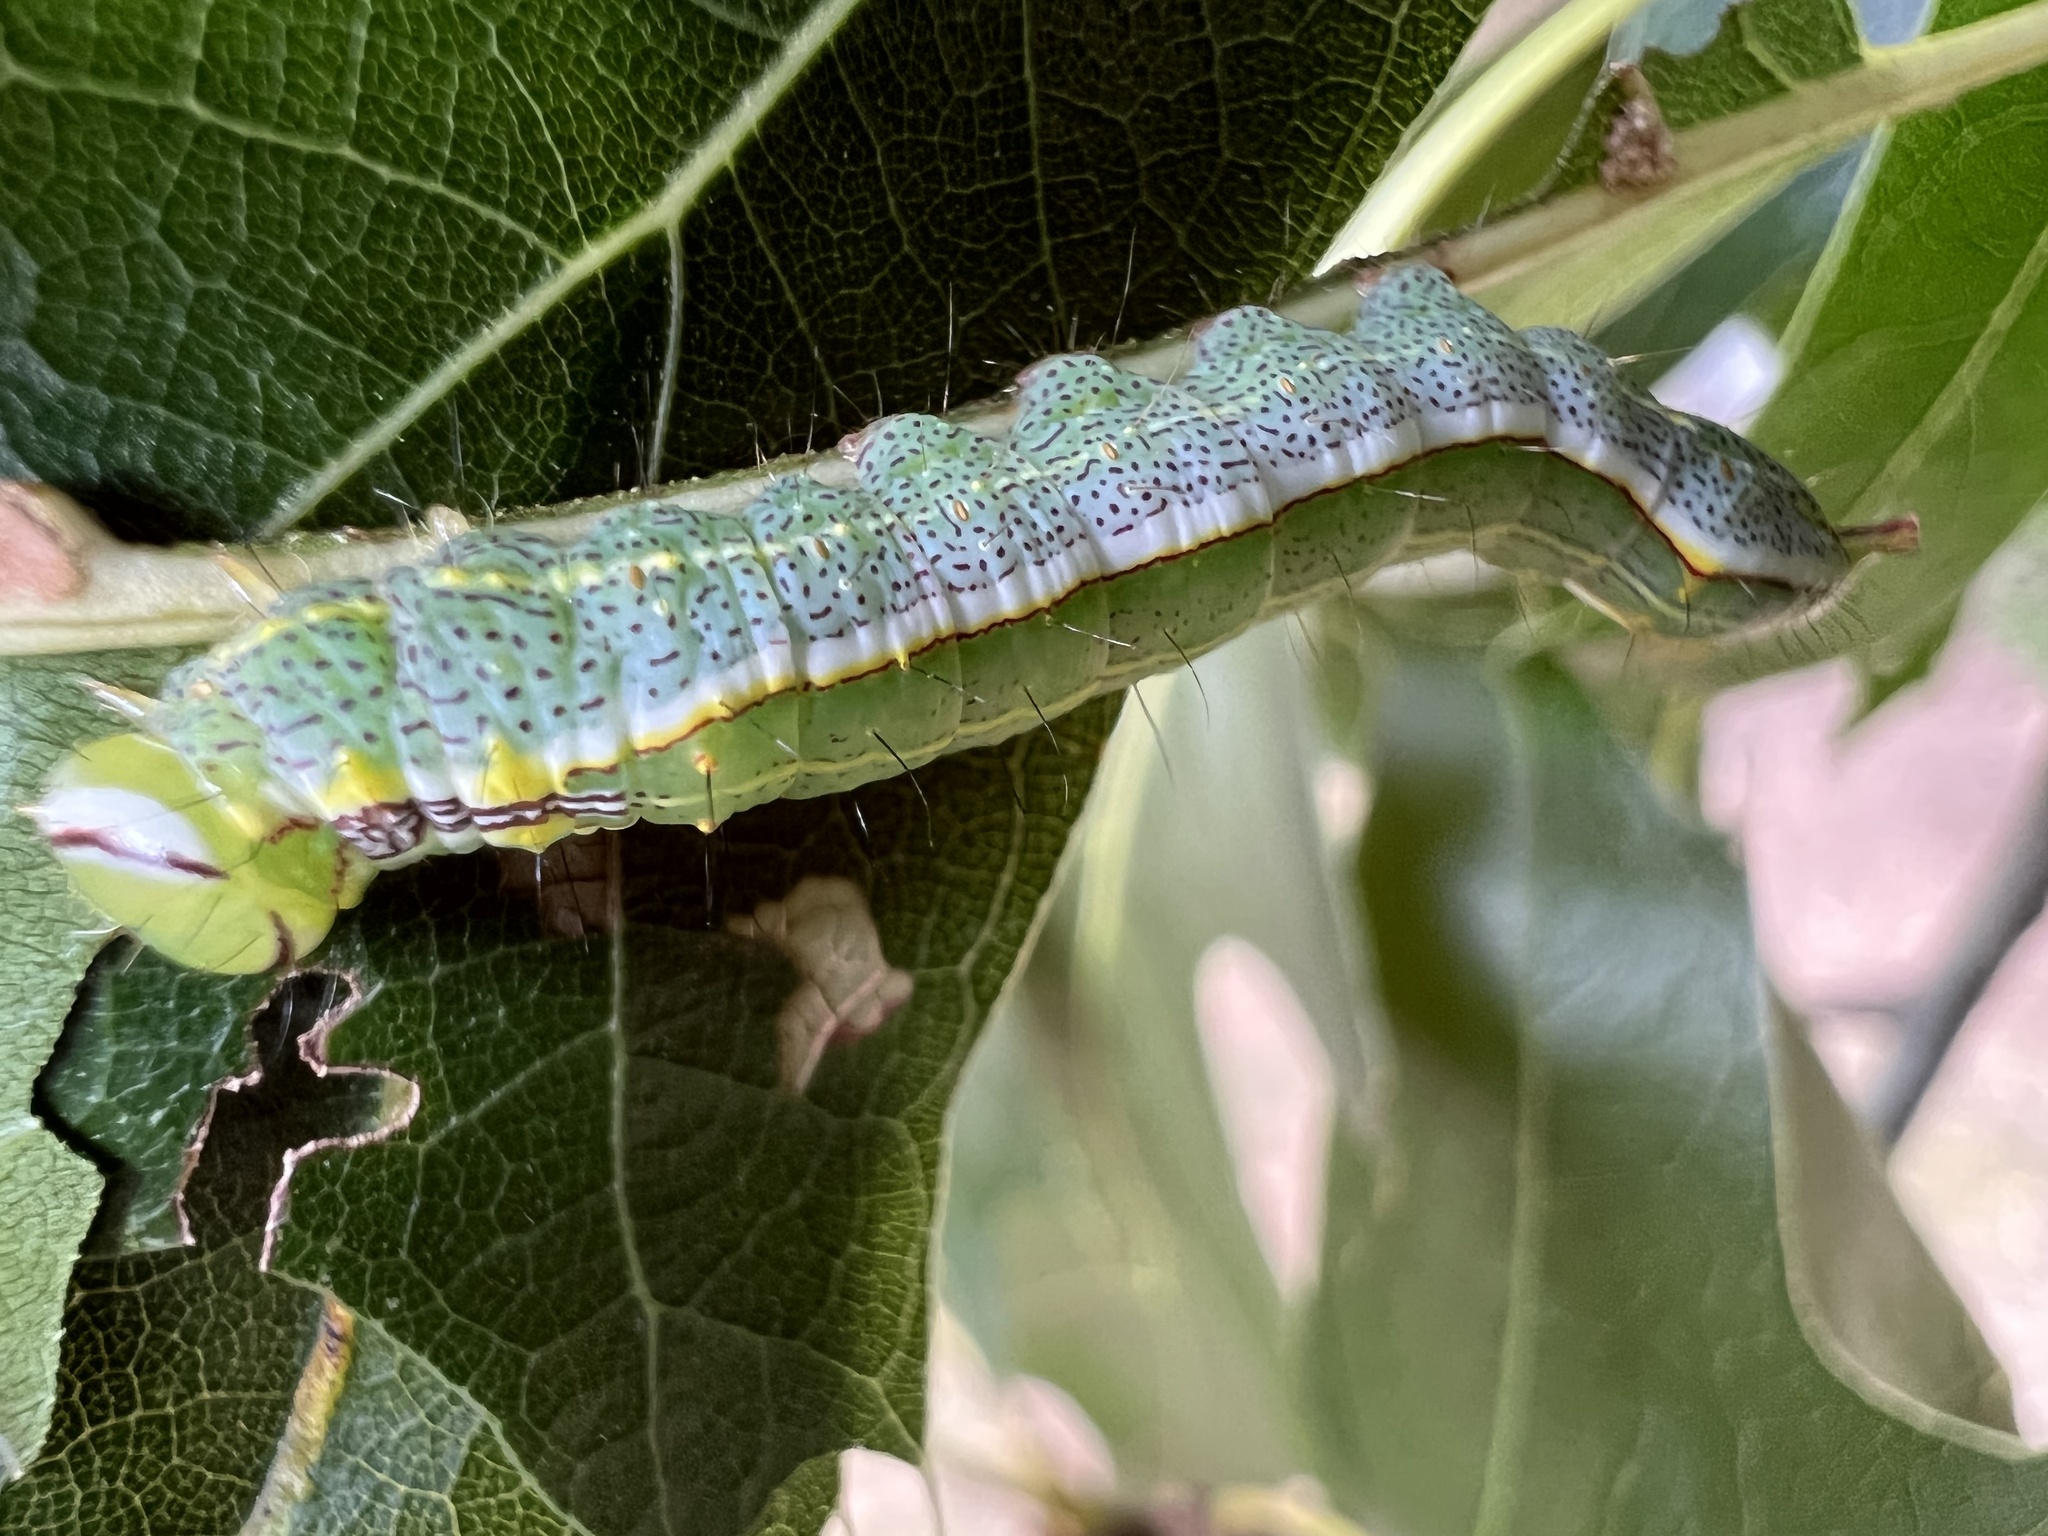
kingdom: Animalia
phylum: Arthropoda
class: Insecta
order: Lepidoptera
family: Notodontidae
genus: Lochmaeus
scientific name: Lochmaeus manteo
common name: Variable oakleaf caterpillar moth
